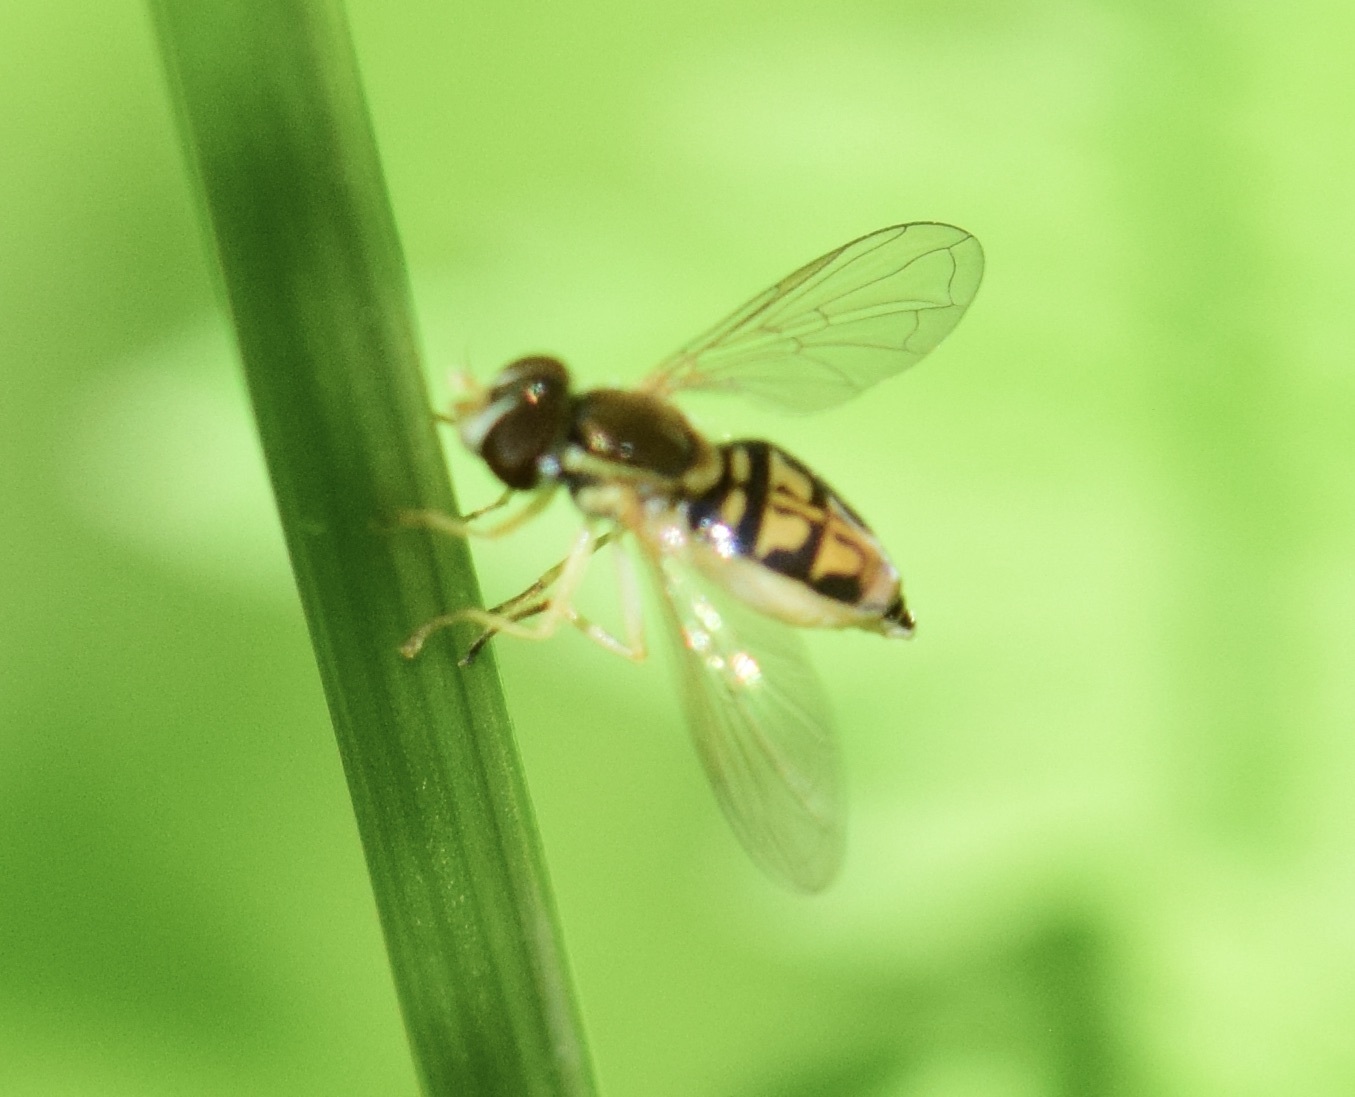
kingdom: Animalia
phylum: Arthropoda
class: Insecta
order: Diptera
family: Syrphidae
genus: Toxomerus
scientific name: Toxomerus marginatus
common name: Syrphid fly
